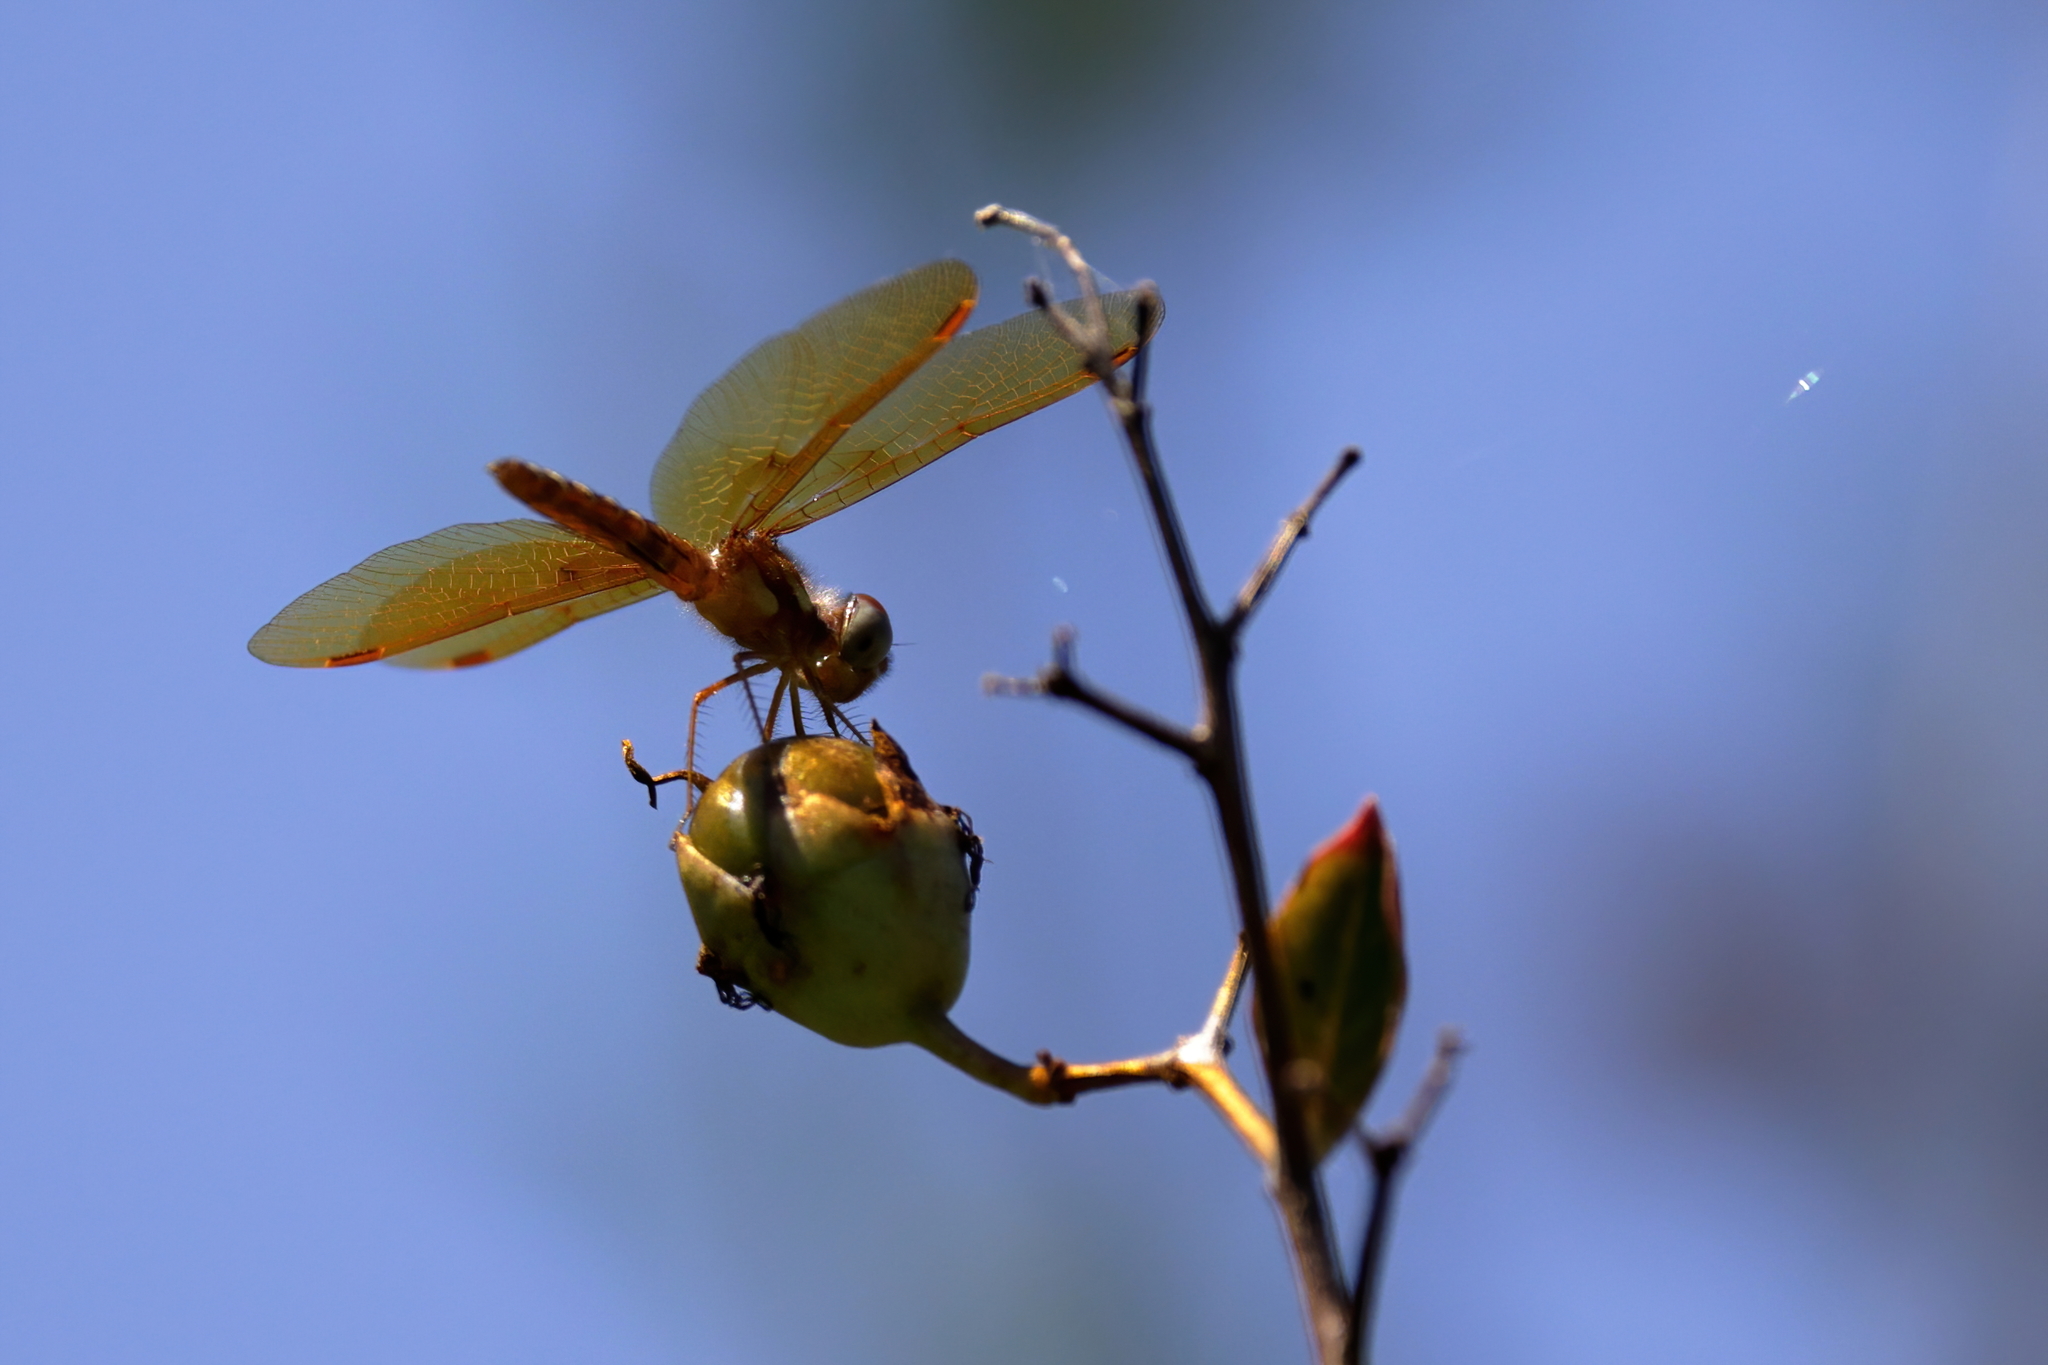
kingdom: Animalia
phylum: Arthropoda
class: Insecta
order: Odonata
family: Libellulidae
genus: Perithemis
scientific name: Perithemis tenera
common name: Eastern amberwing
